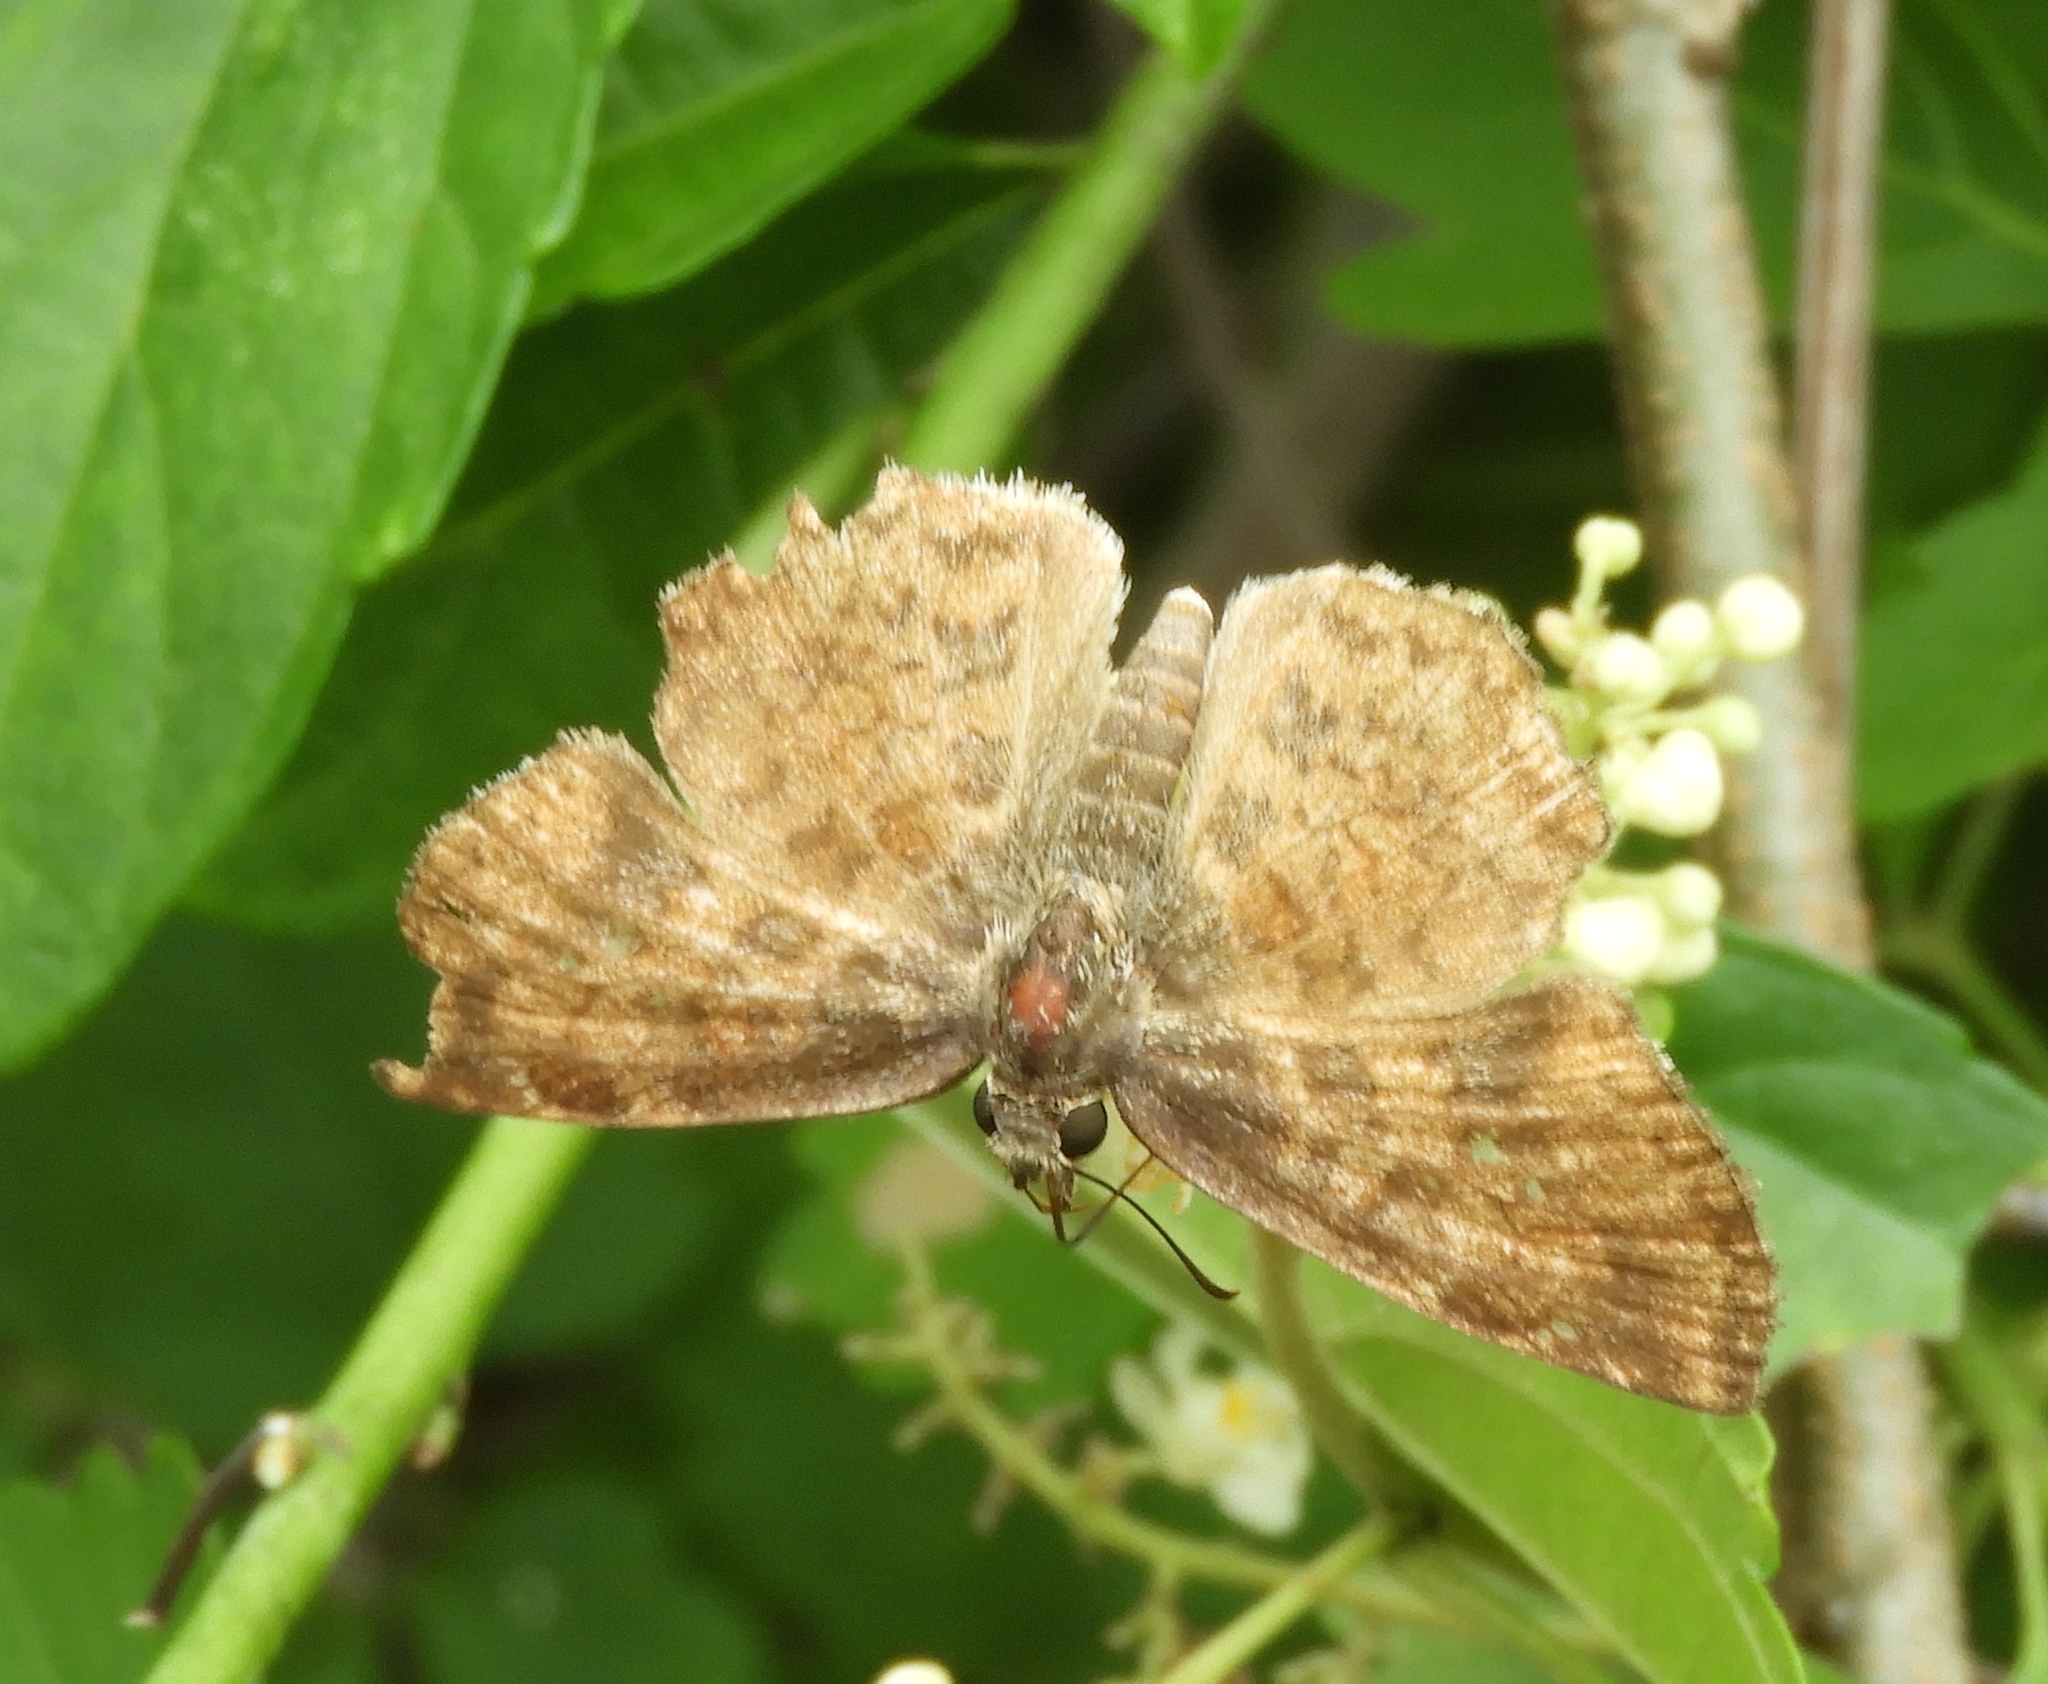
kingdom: Animalia
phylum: Arthropoda
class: Insecta
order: Lepidoptera
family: Hesperiidae
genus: Antigonus
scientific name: Antigonus erosus
